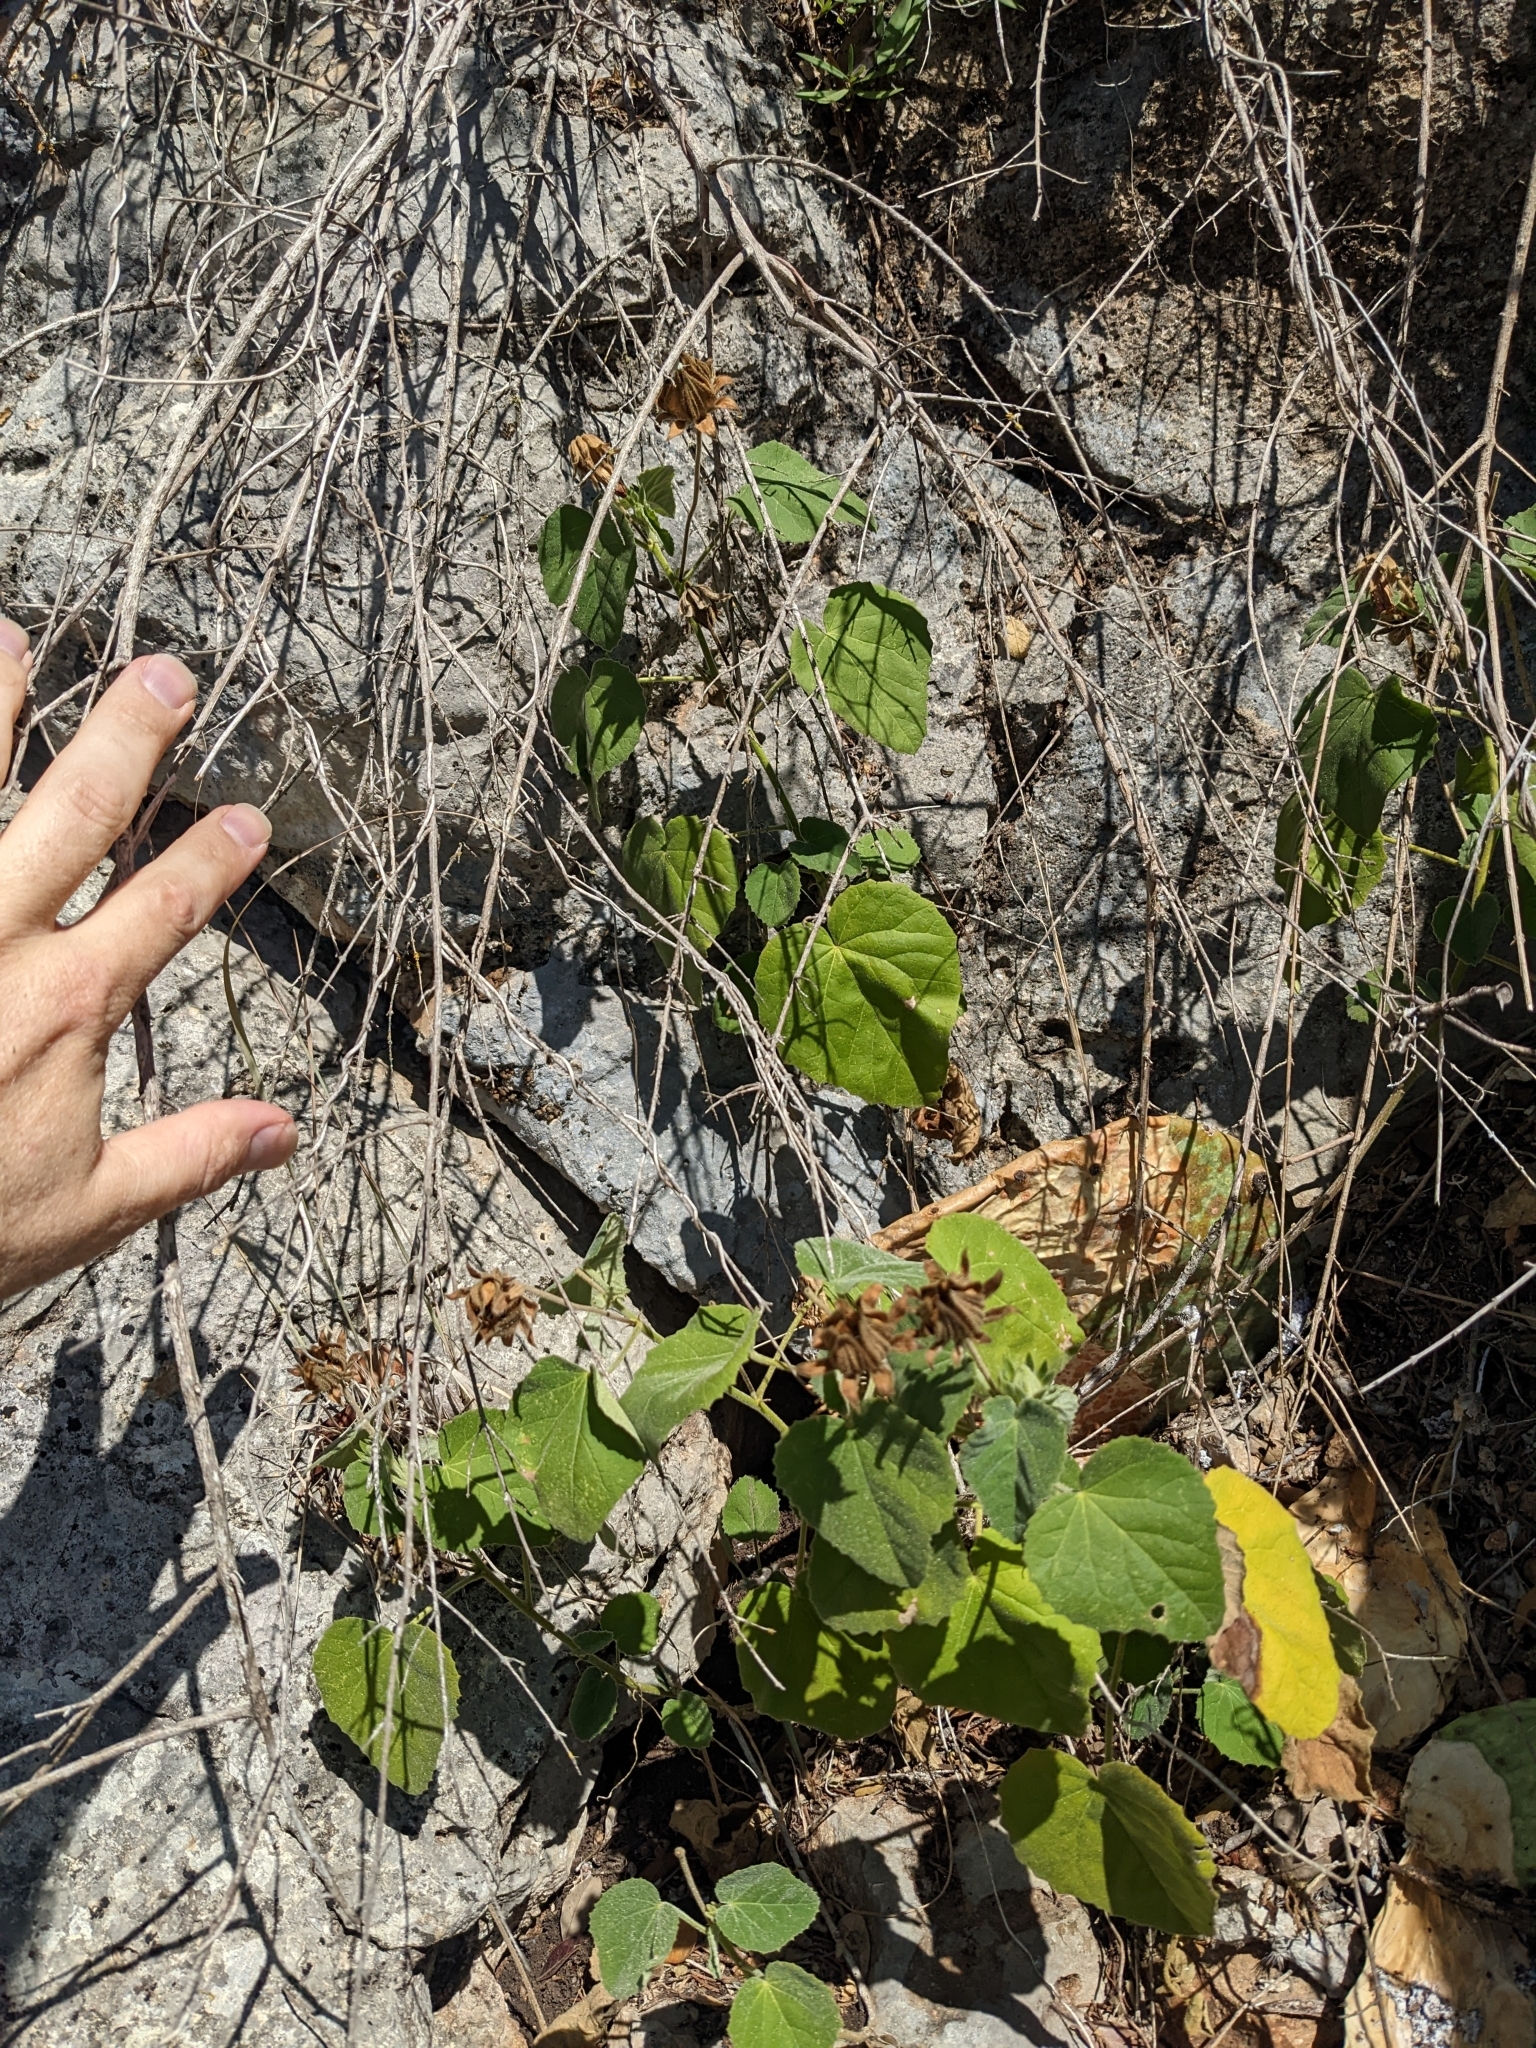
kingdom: Plantae
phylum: Tracheophyta
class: Magnoliopsida
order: Malvales
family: Malvaceae
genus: Hibiscus
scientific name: Hibiscus martianus
